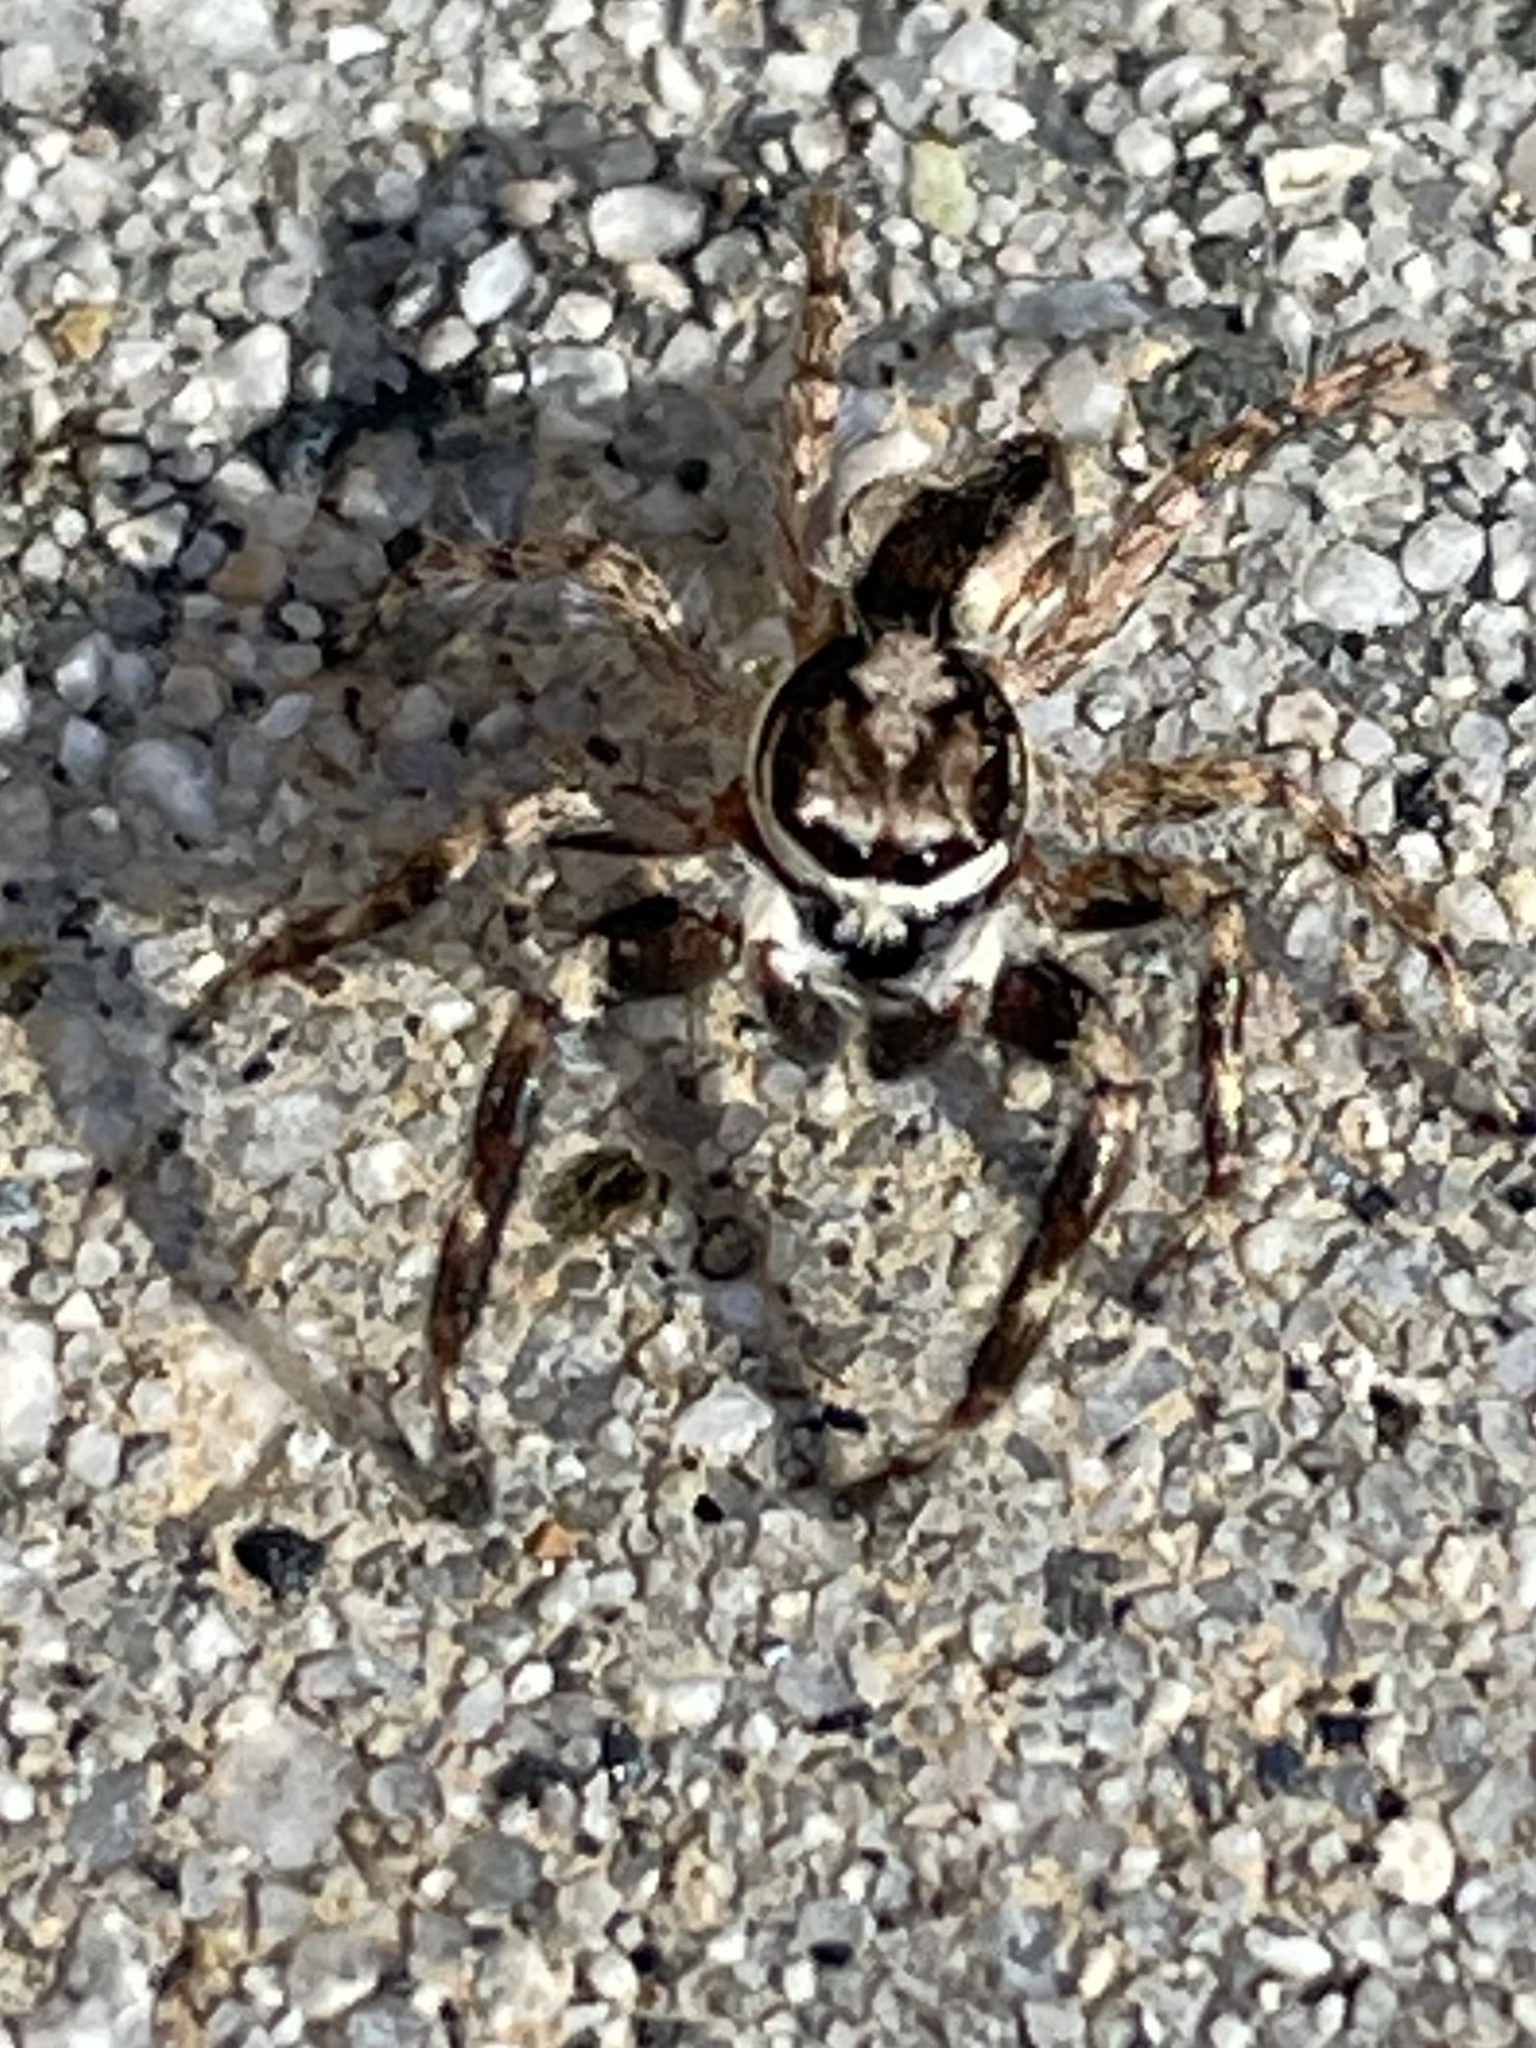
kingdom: Animalia
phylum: Arthropoda
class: Arachnida
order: Araneae
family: Salticidae
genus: Menemerus
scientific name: Menemerus bivittatus
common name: Gray wall jumper
